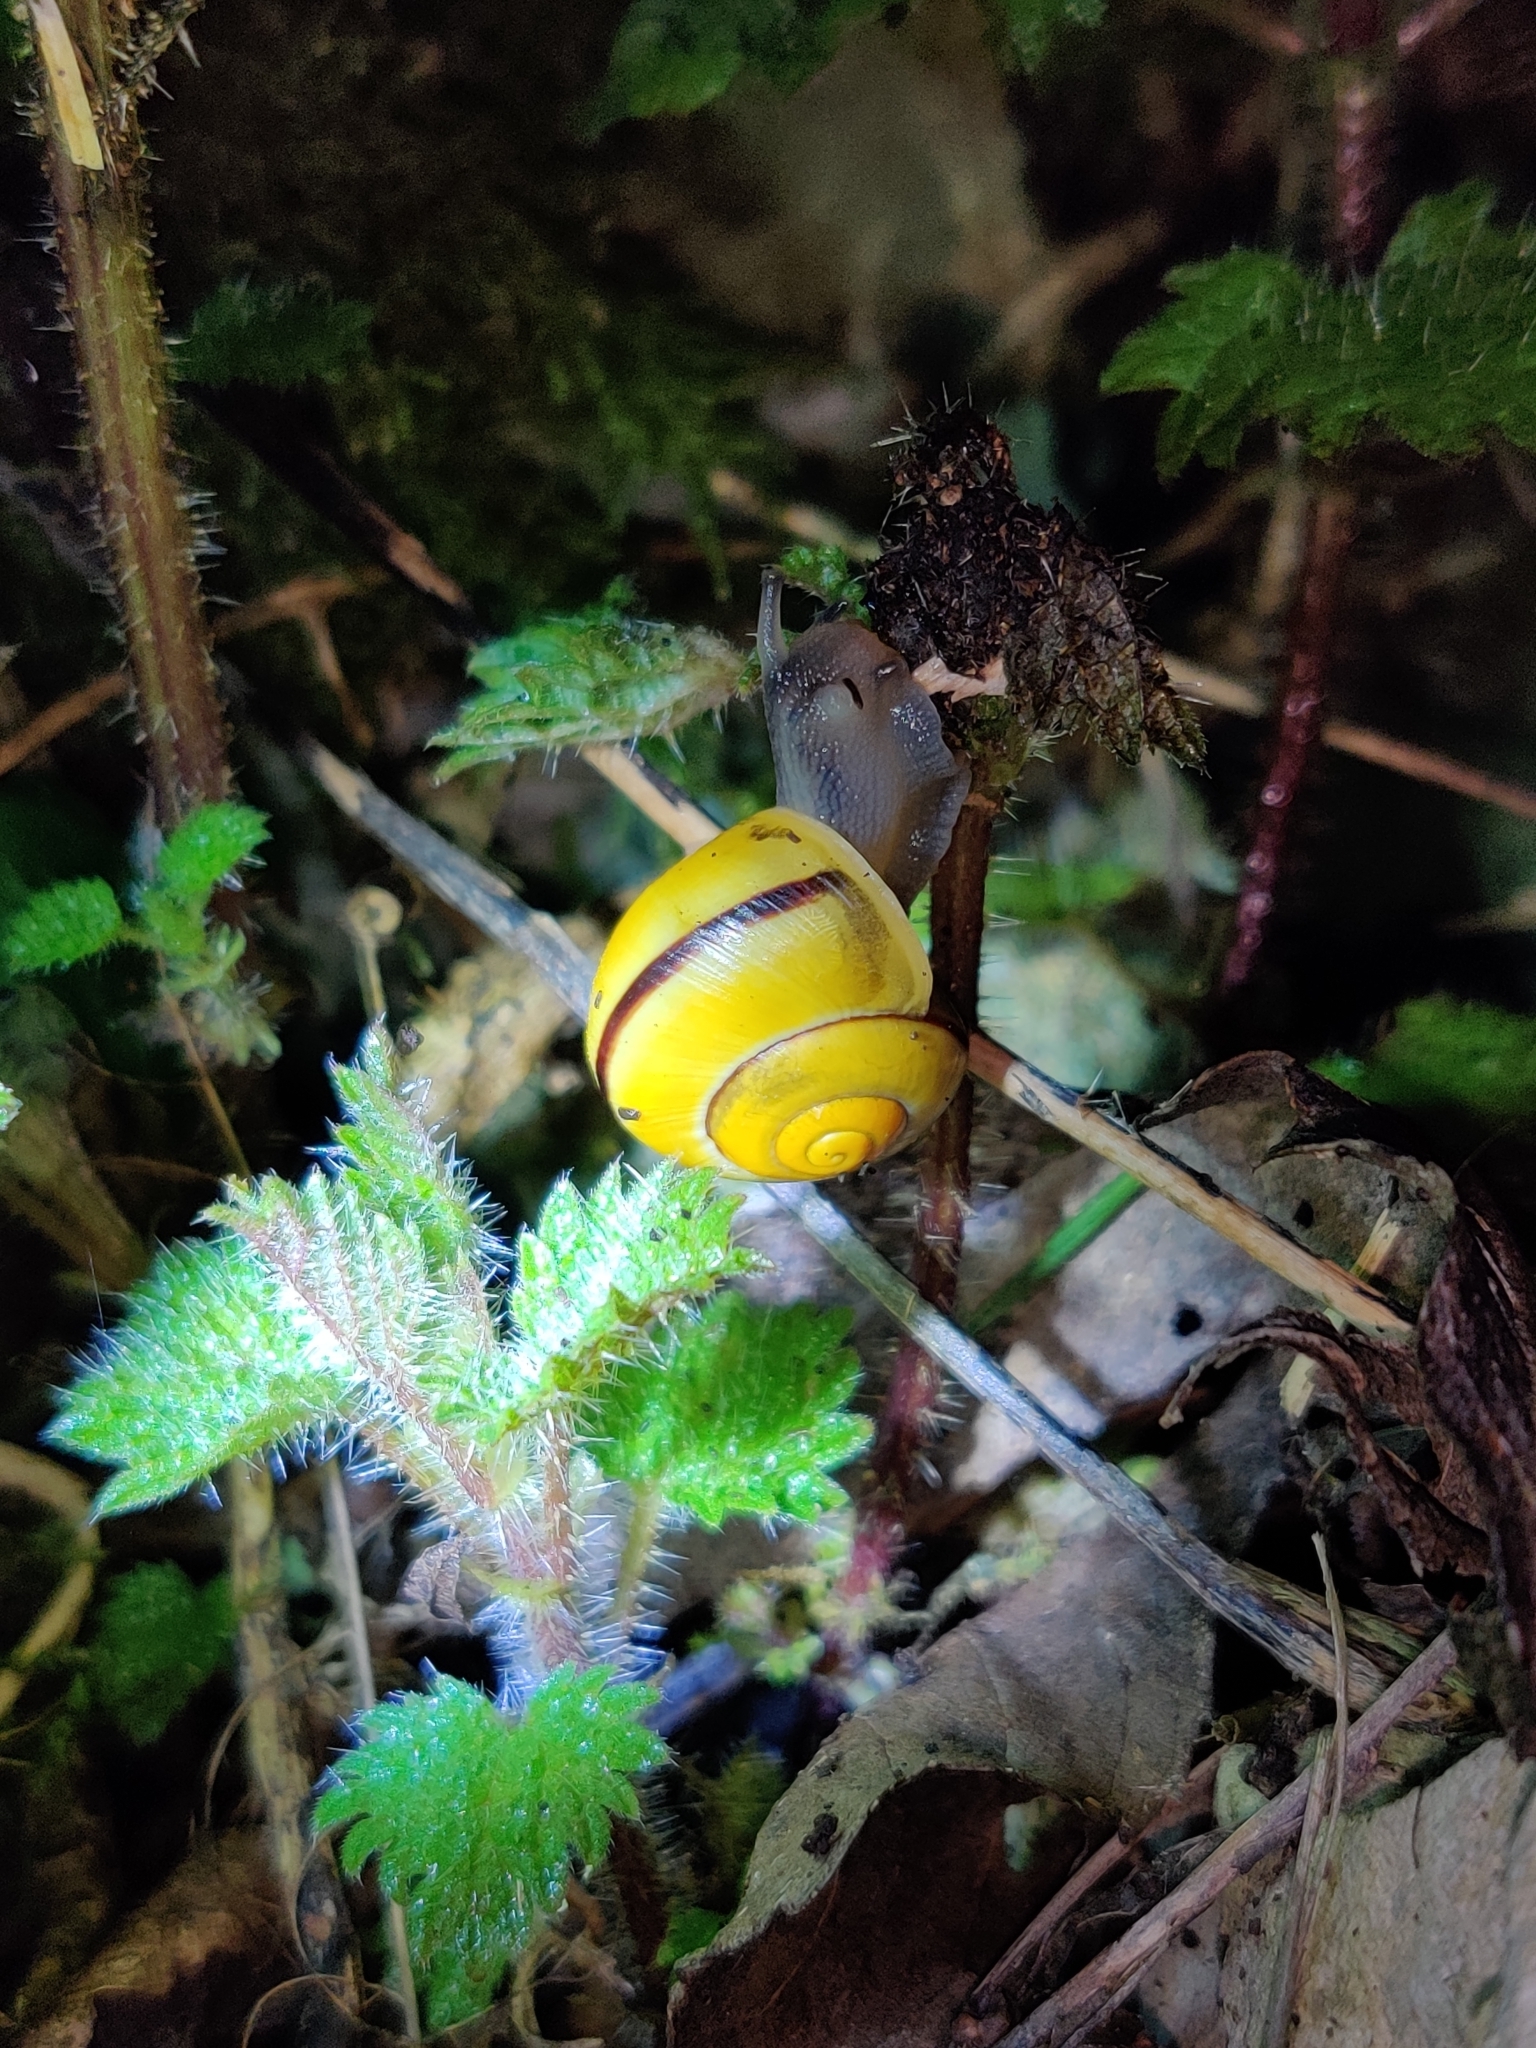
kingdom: Animalia
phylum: Mollusca
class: Gastropoda
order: Stylommatophora
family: Helicidae
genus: Cepaea
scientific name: Cepaea nemoralis
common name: Grovesnail
